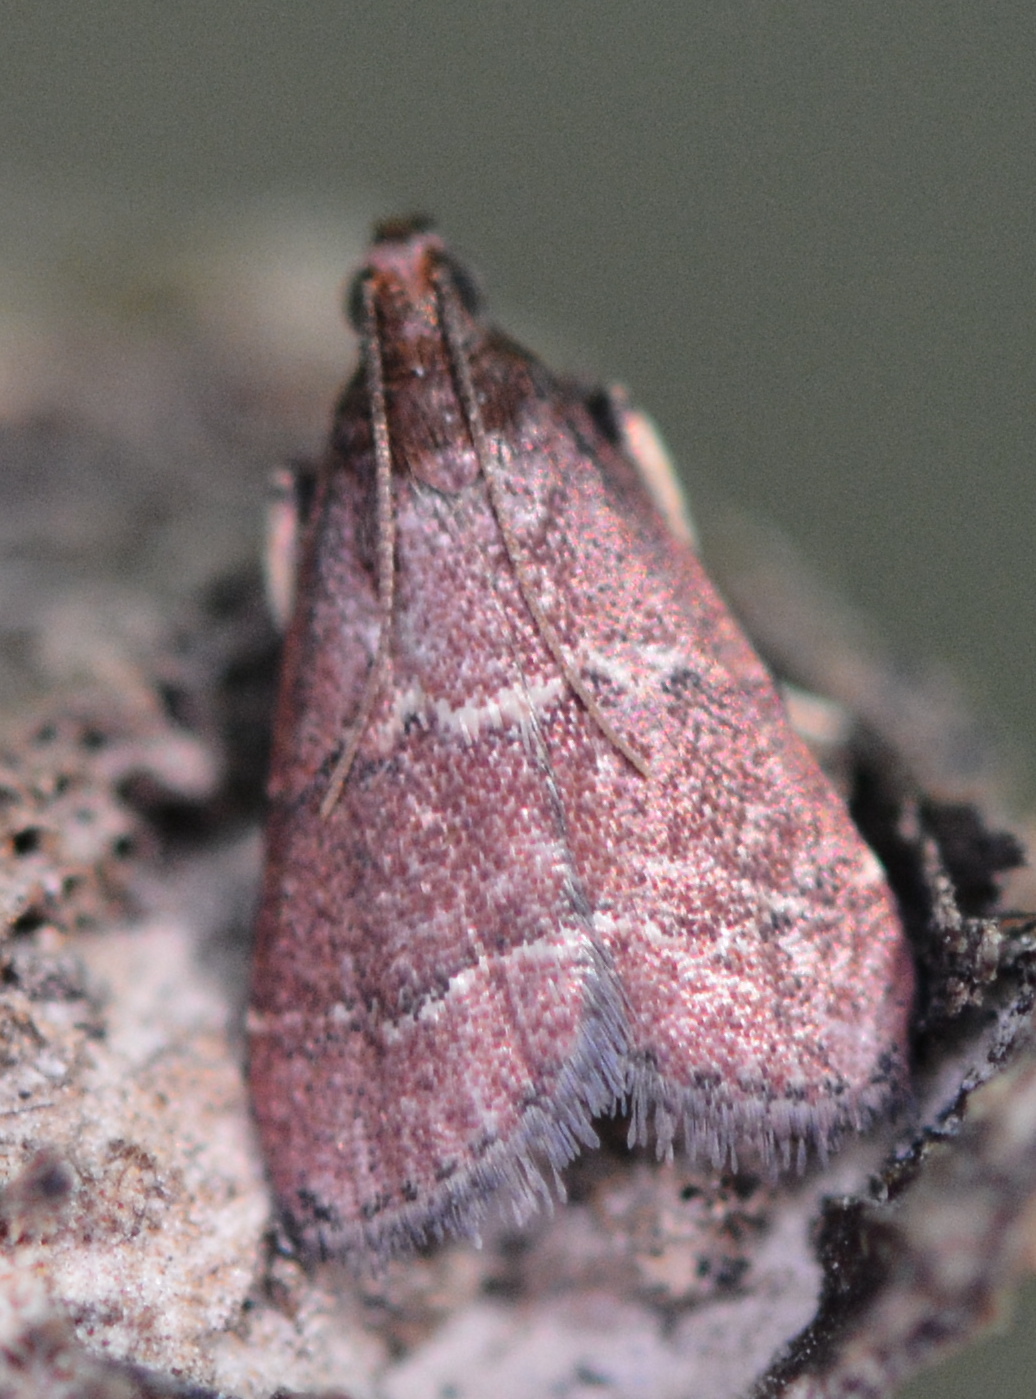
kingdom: Animalia
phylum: Arthropoda
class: Insecta
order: Lepidoptera
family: Pyralidae
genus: Arta
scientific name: Arta
